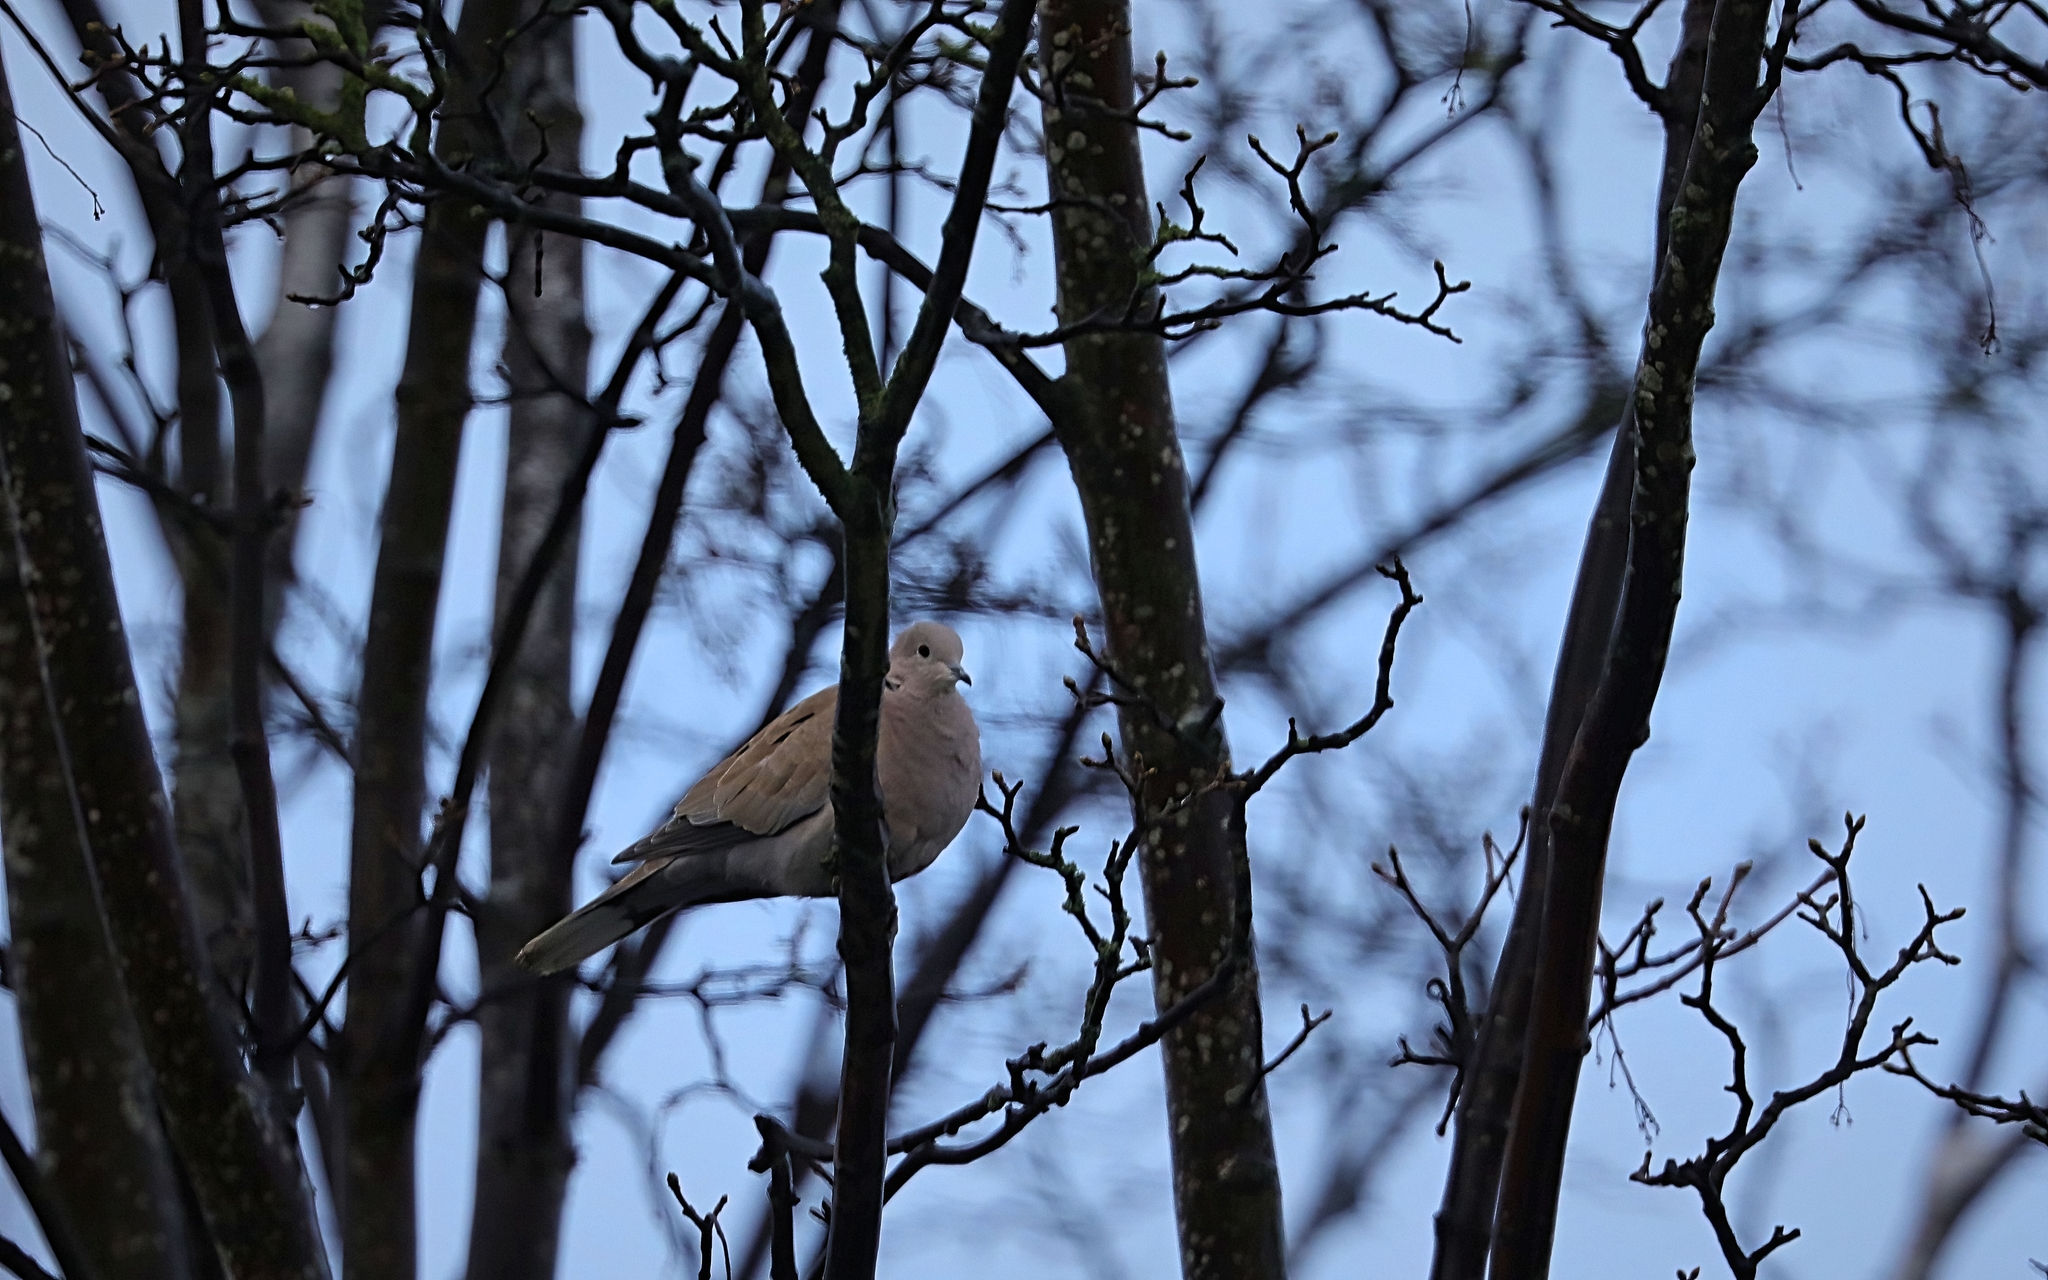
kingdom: Animalia
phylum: Chordata
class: Aves
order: Columbiformes
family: Columbidae
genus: Streptopelia
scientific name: Streptopelia decaocto
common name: Eurasian collared dove
